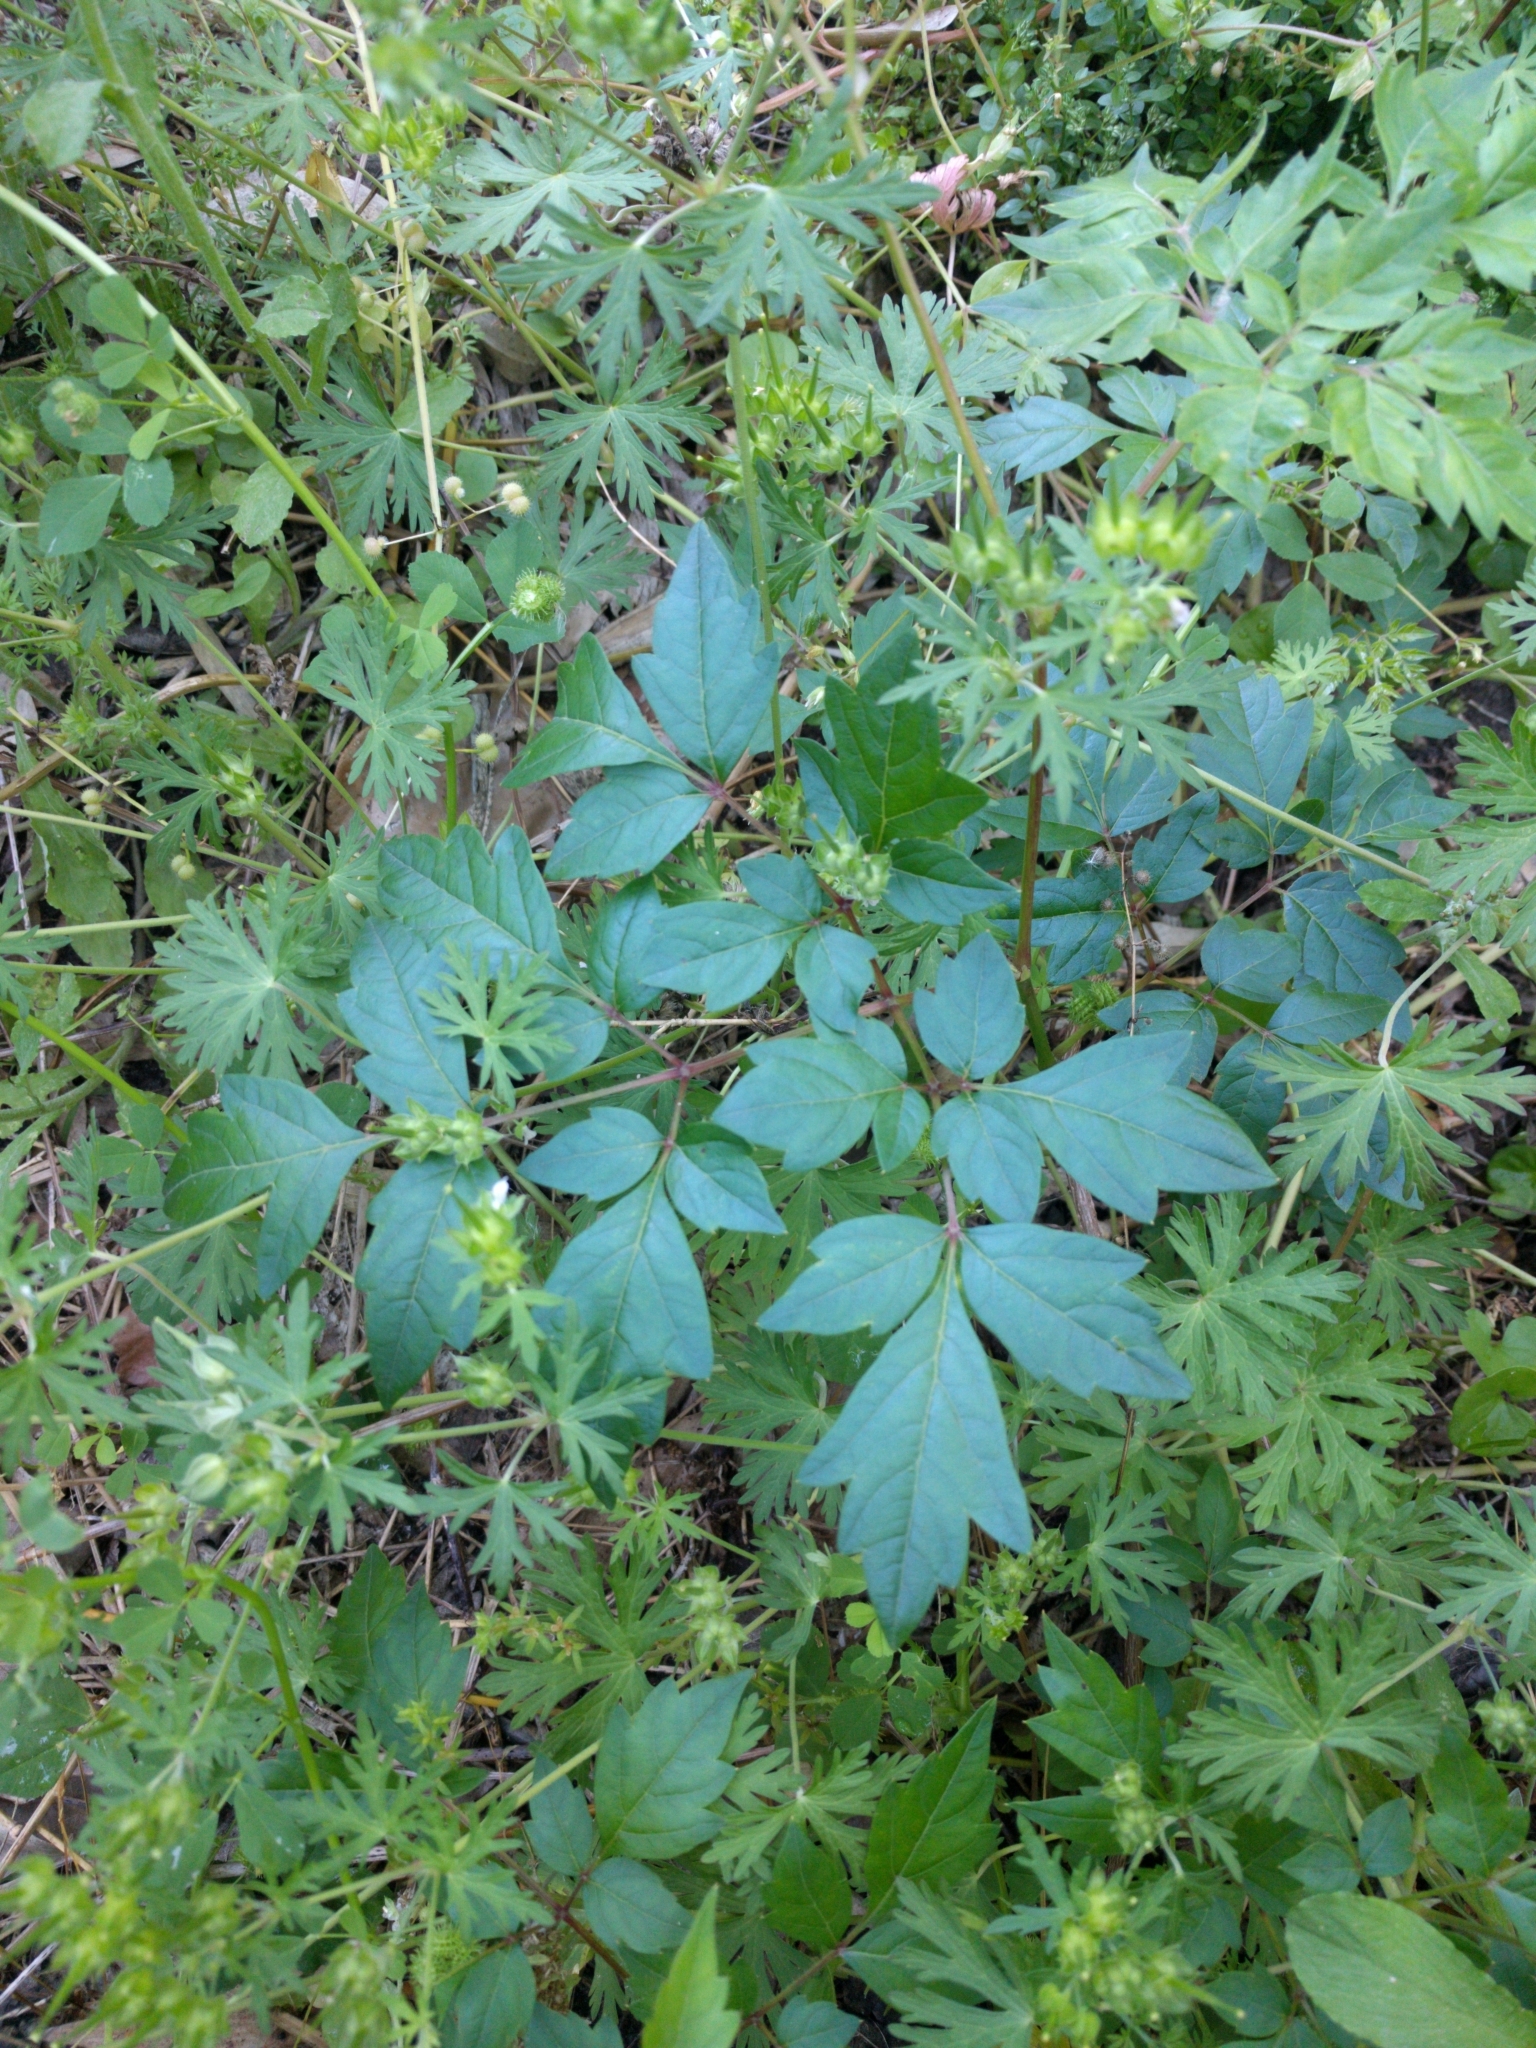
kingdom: Plantae
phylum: Tracheophyta
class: Magnoliopsida
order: Vitales
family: Vitaceae
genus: Nekemias
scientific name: Nekemias arborea
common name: Peppervine
